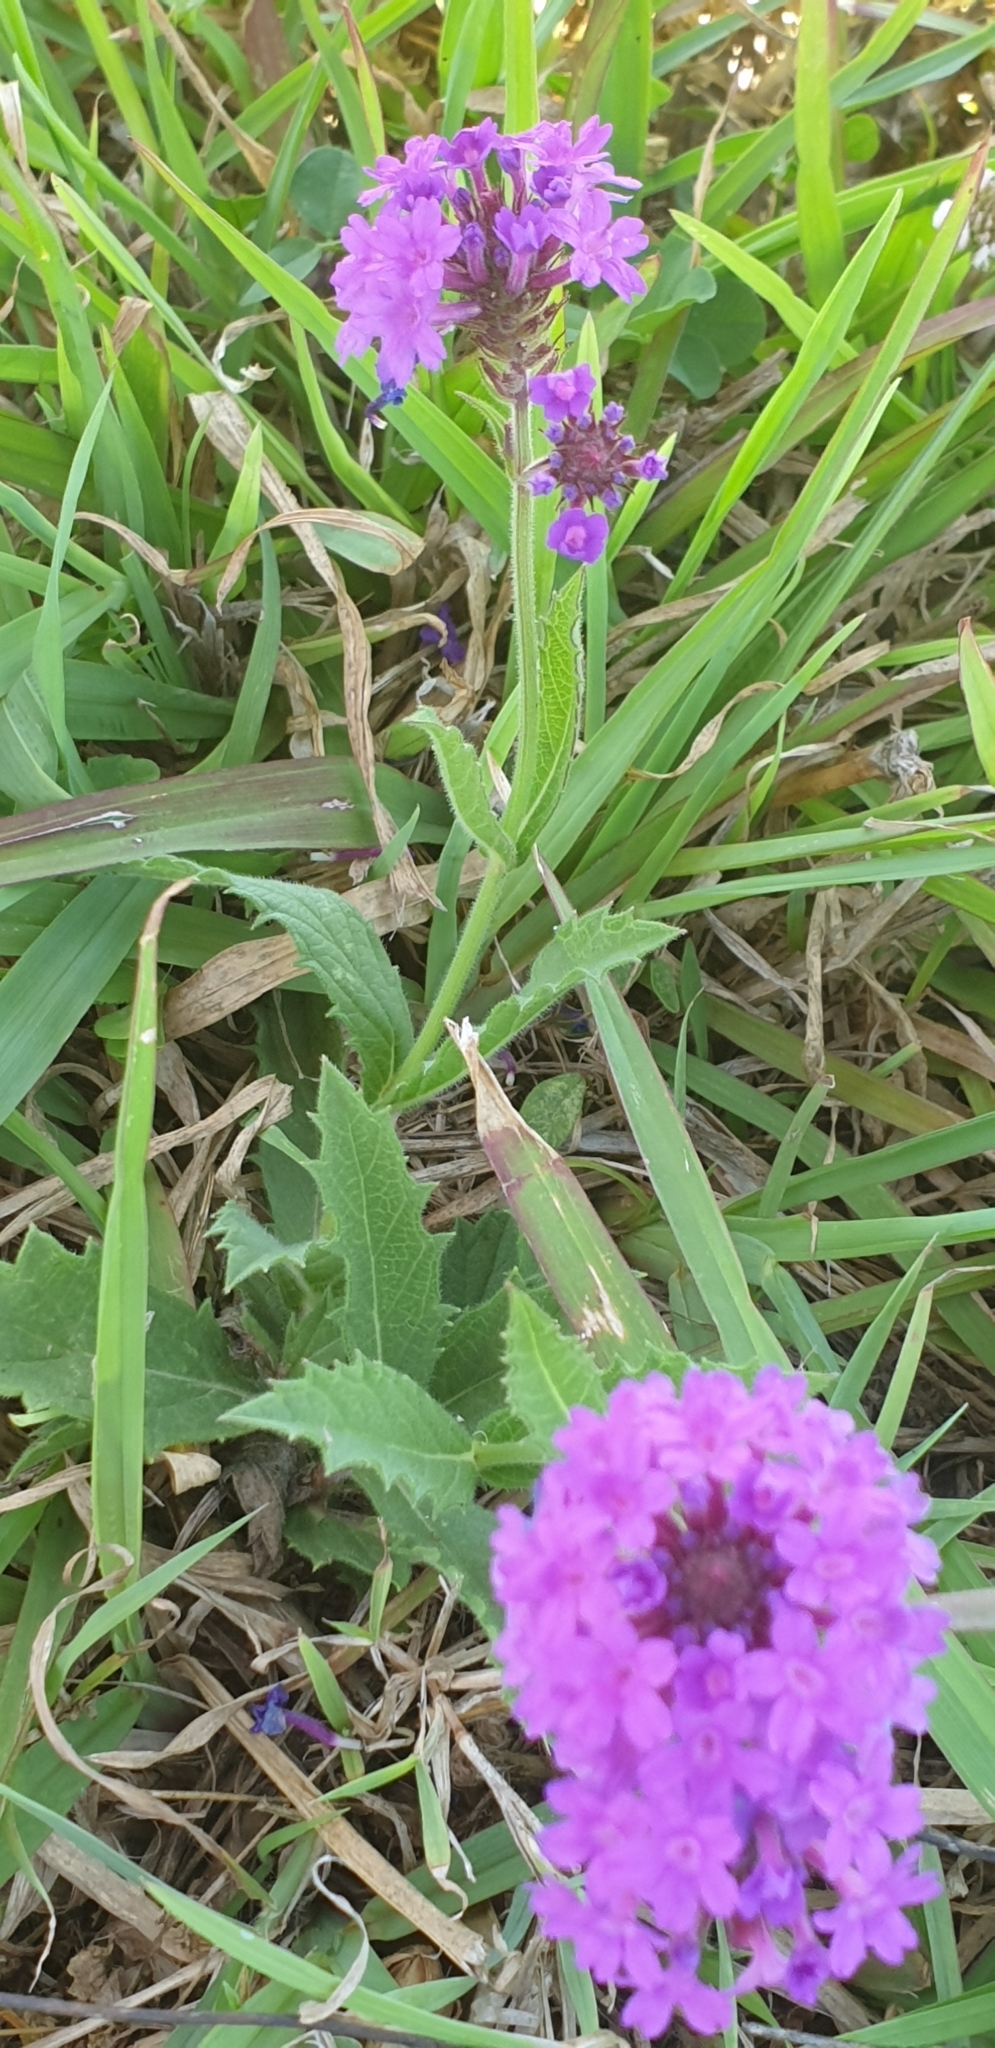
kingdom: Plantae
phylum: Tracheophyta
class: Magnoliopsida
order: Lamiales
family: Verbenaceae
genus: Verbena
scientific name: Verbena rigida
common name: Slender vervain
